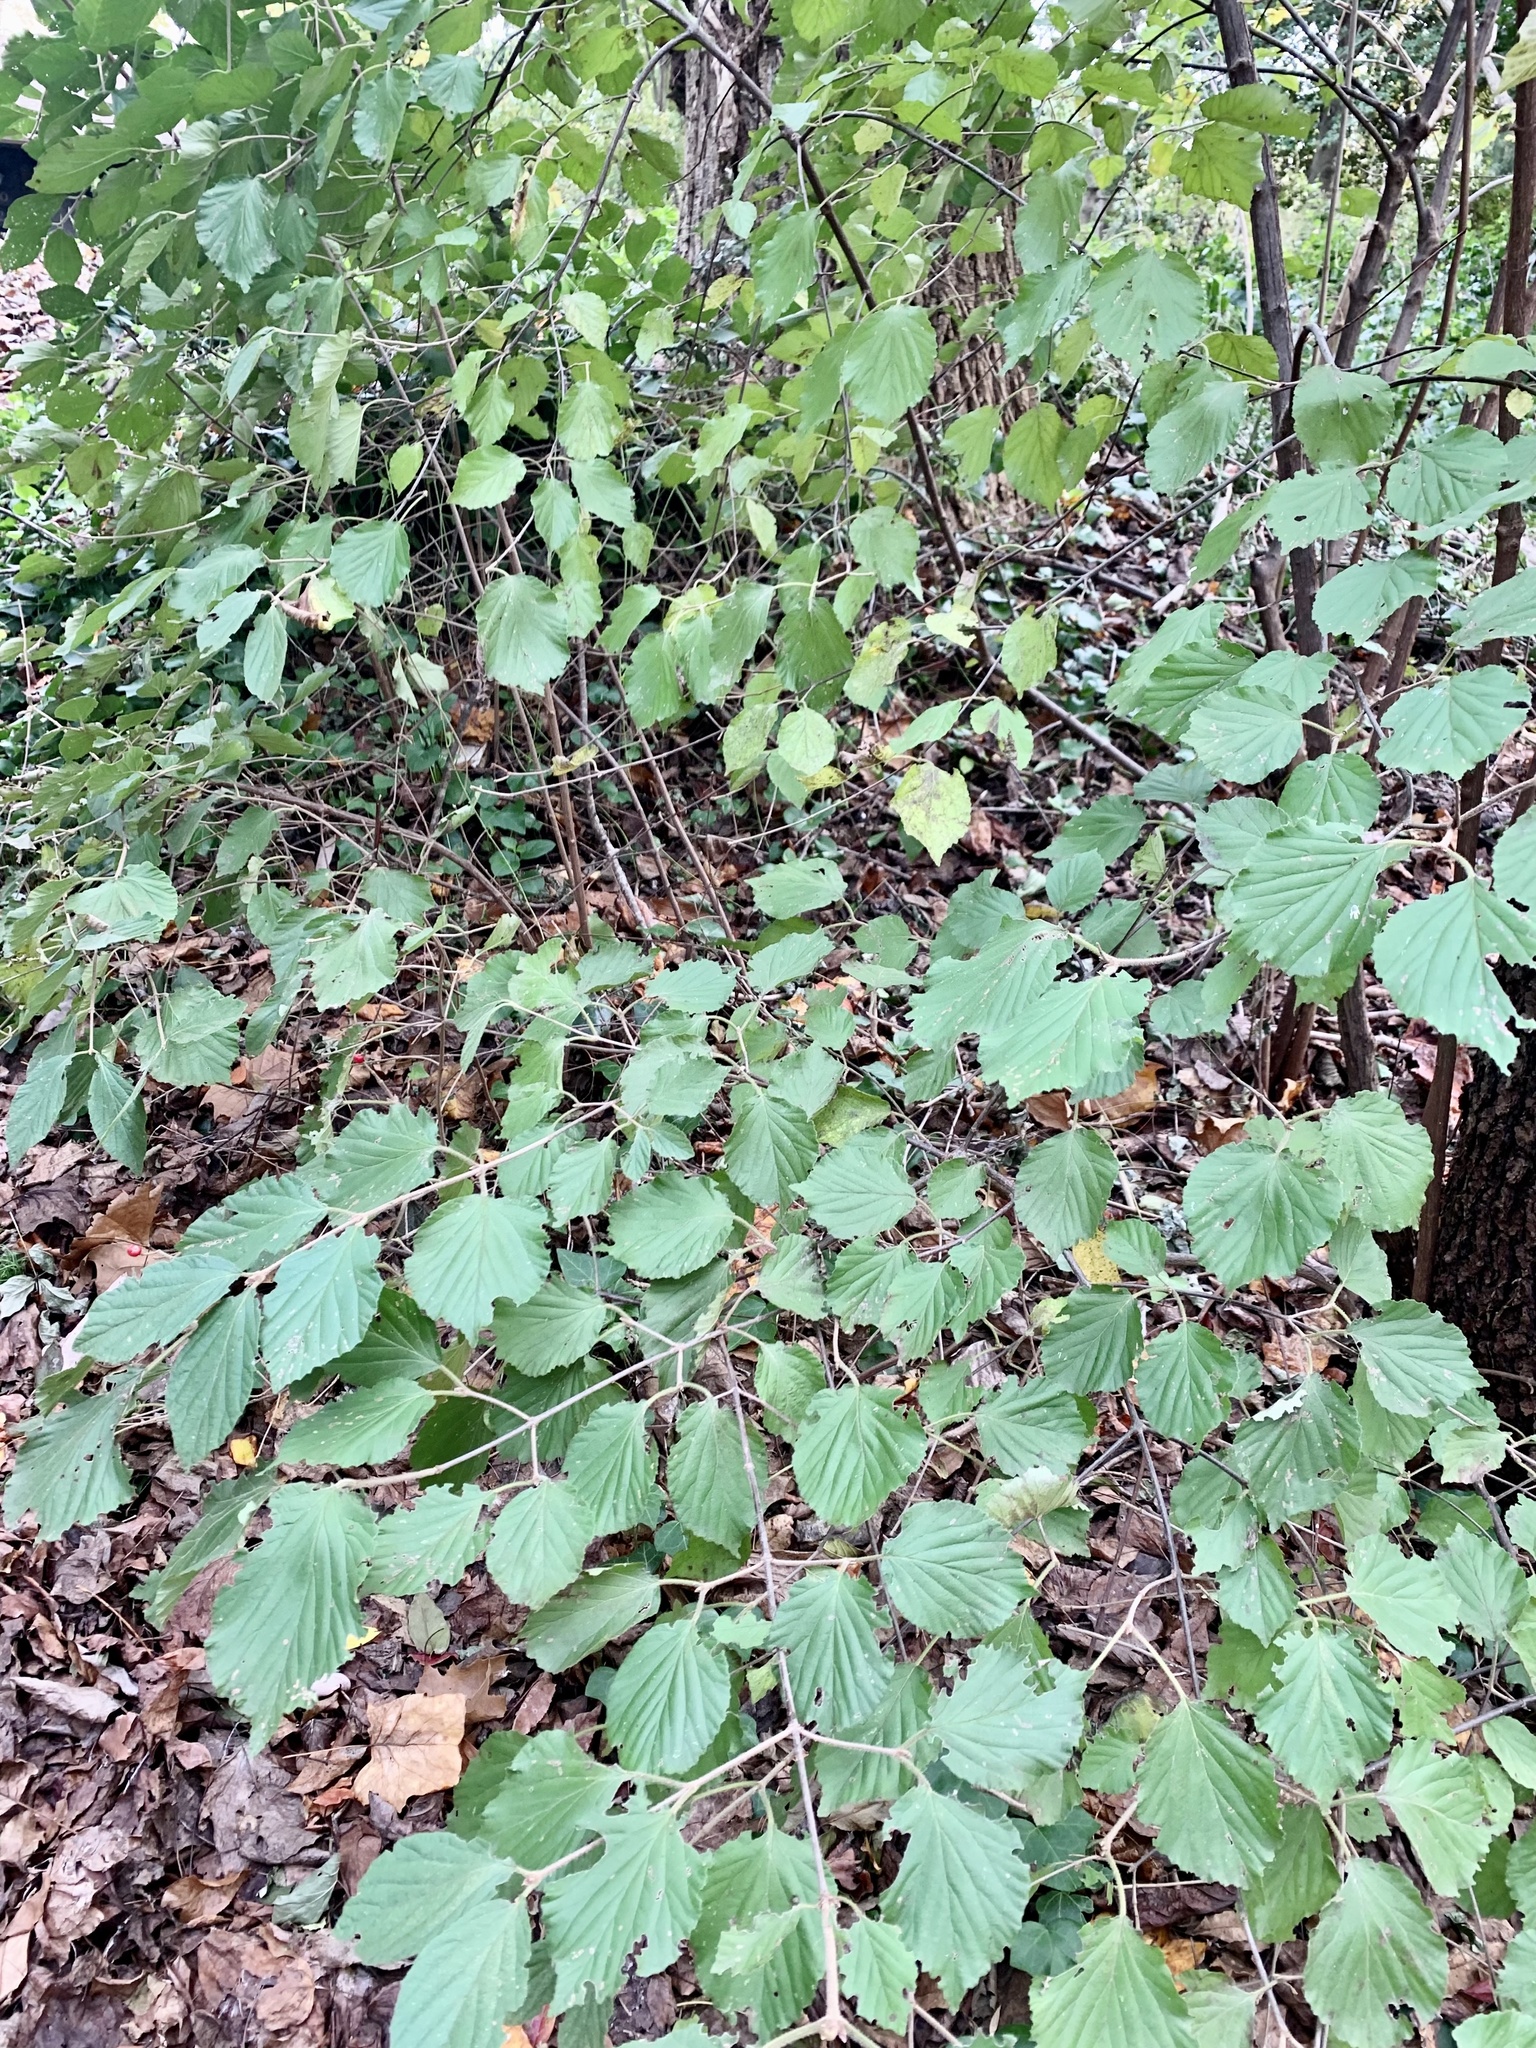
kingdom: Plantae
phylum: Tracheophyta
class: Magnoliopsida
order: Dipsacales
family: Viburnaceae
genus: Viburnum
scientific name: Viburnum dilatatum
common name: Linden arrowwood
